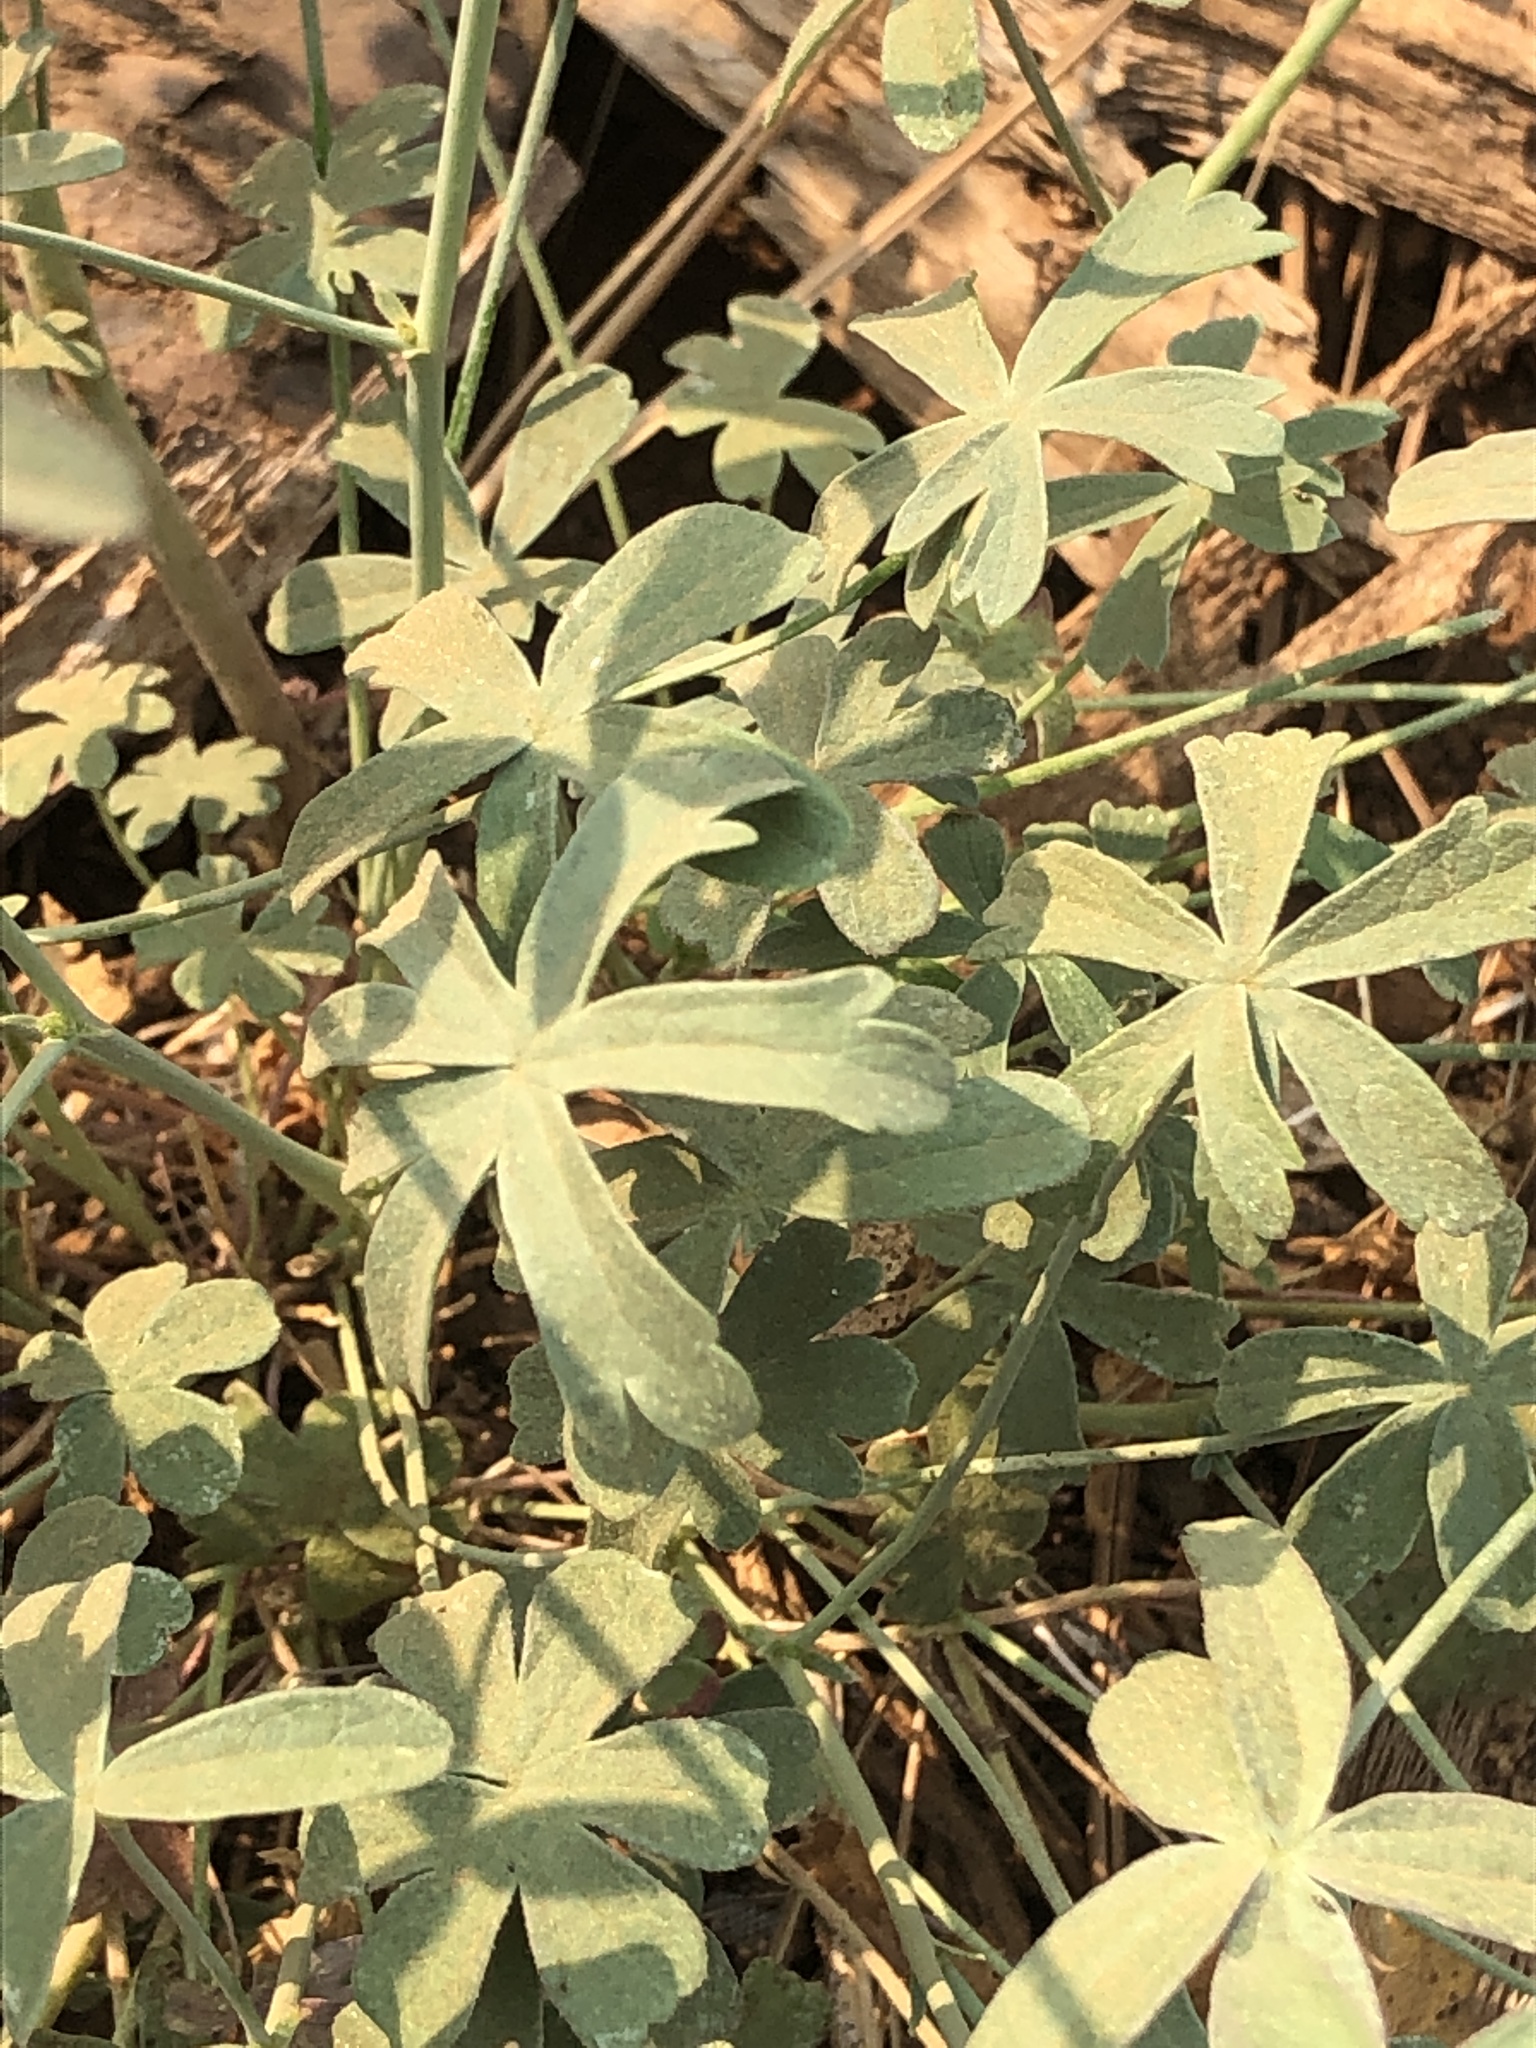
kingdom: Plantae
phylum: Tracheophyta
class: Magnoliopsida
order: Malvales
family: Malvaceae
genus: Sidalcea
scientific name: Sidalcea glaucescens
